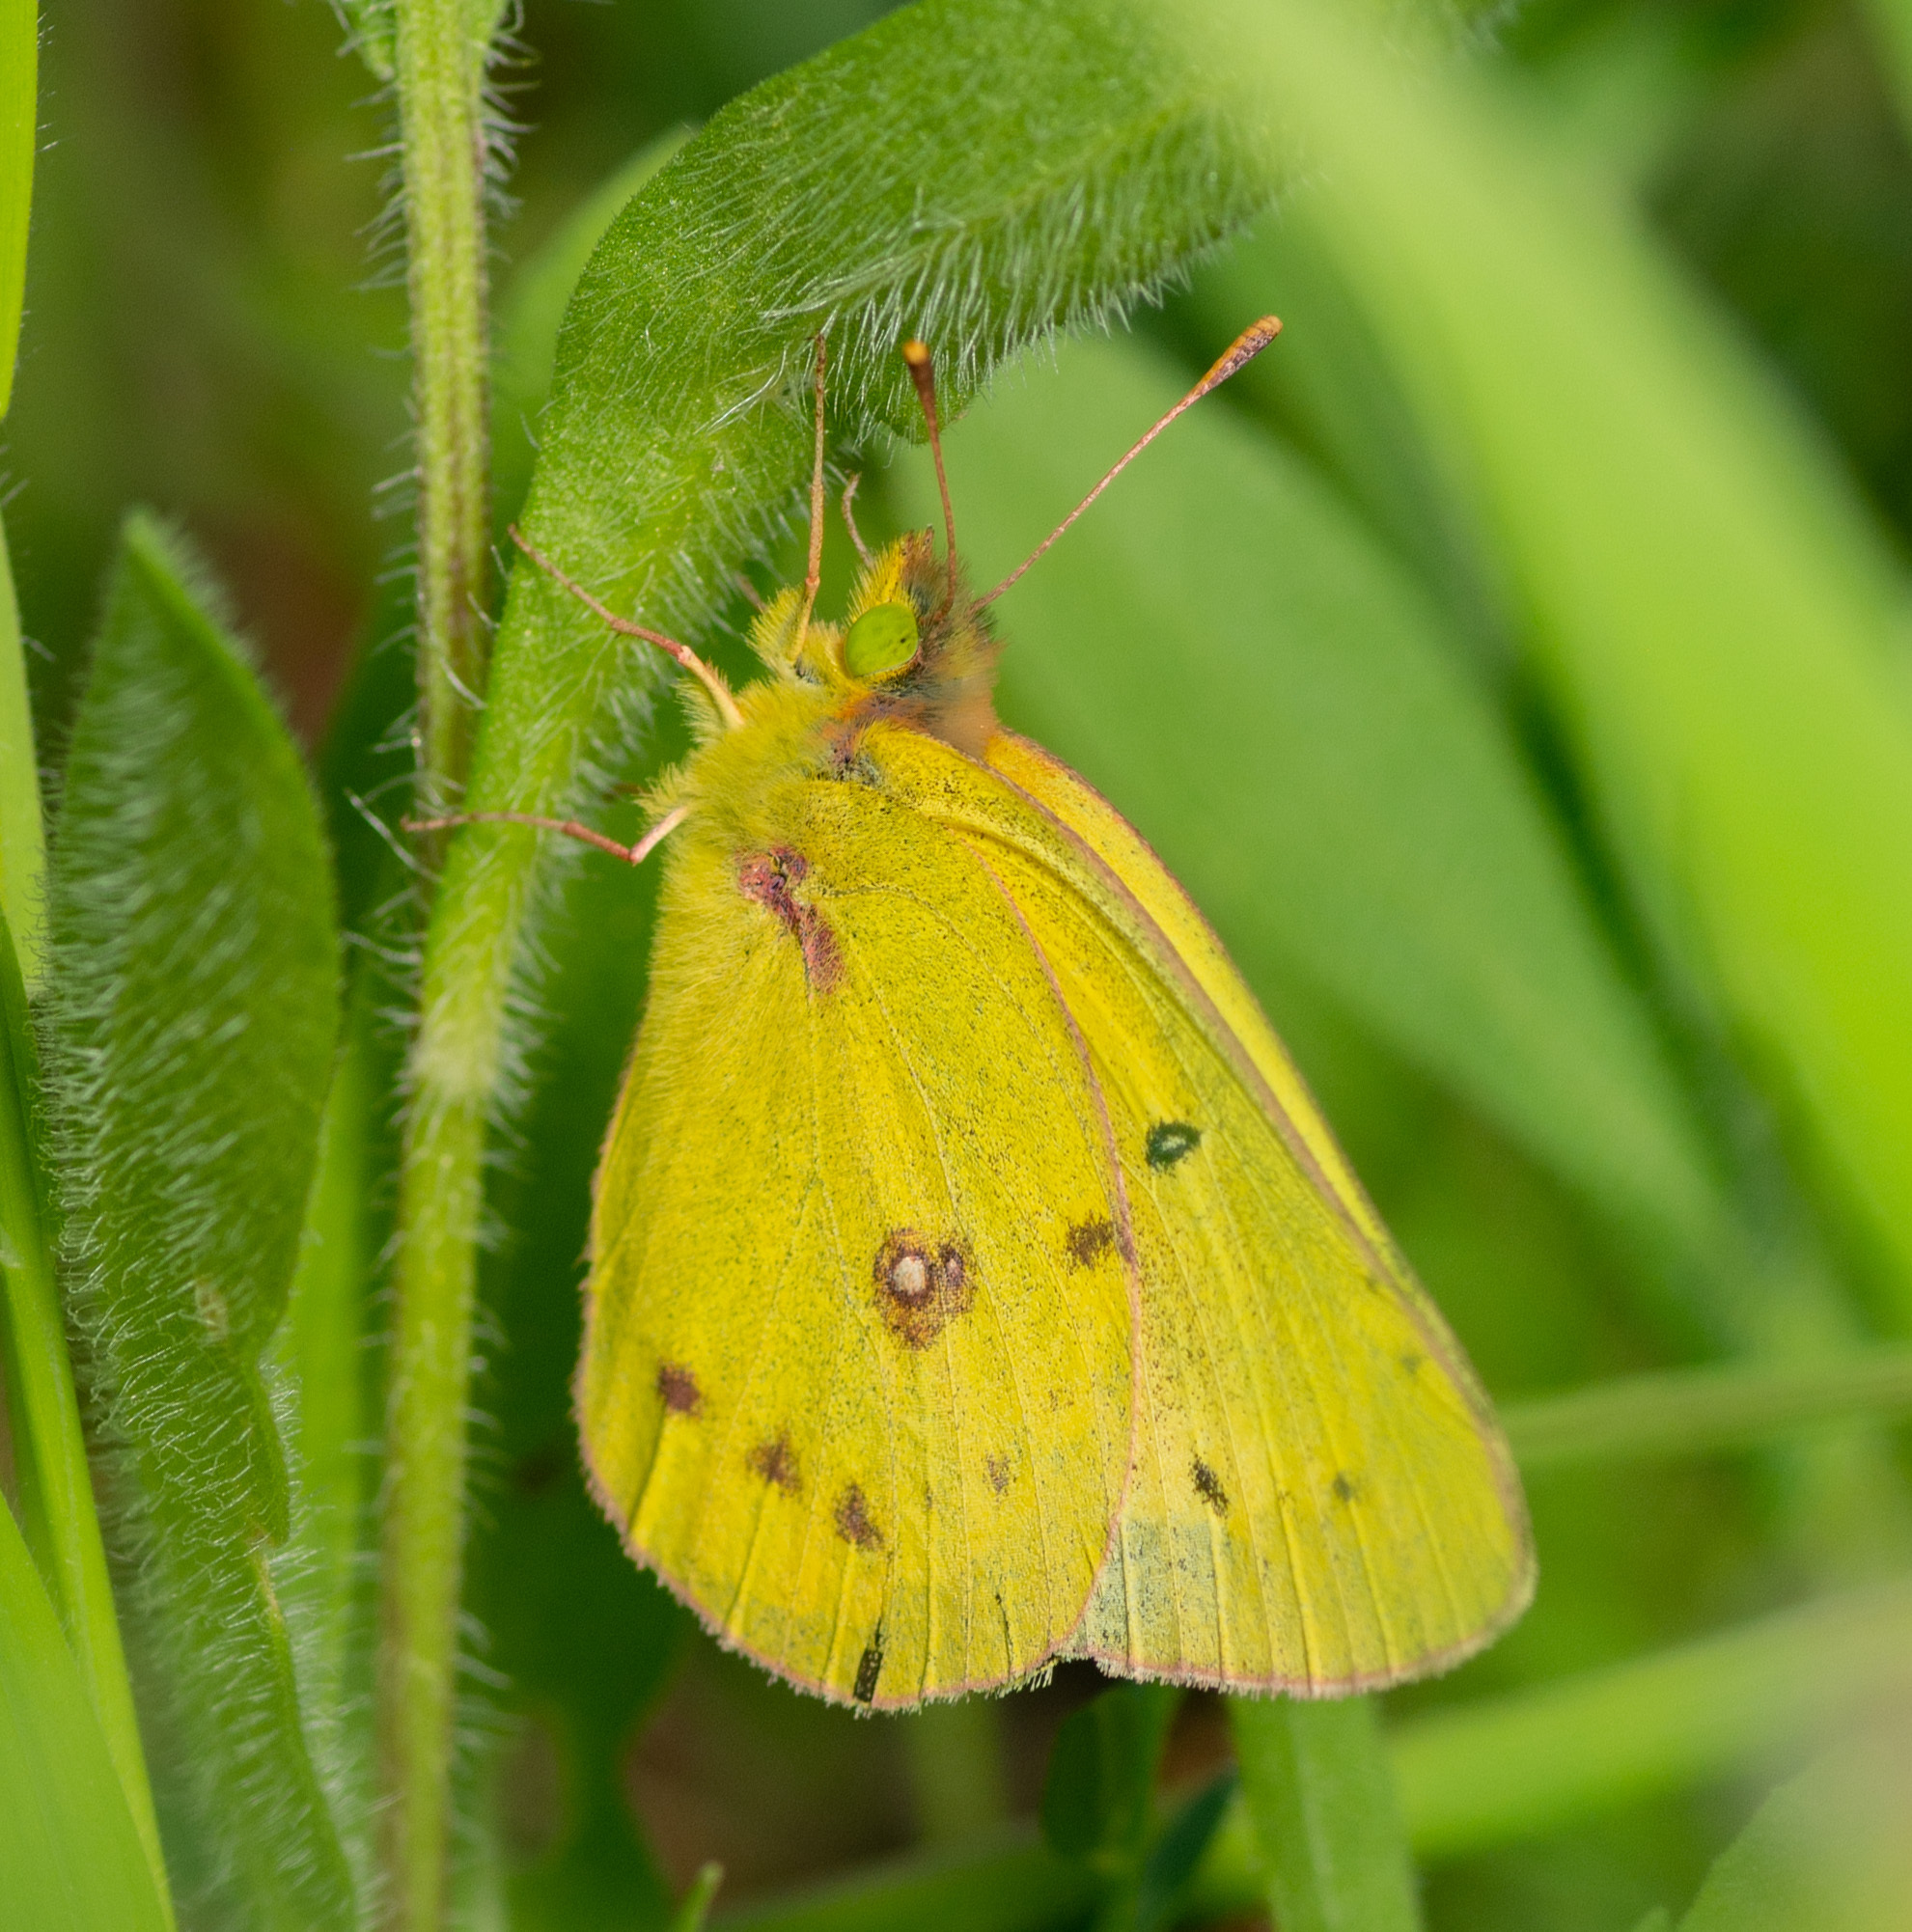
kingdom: Animalia
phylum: Arthropoda
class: Insecta
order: Lepidoptera
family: Pieridae
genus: Colias
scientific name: Colias eurytheme
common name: Alfalfa butterfly
